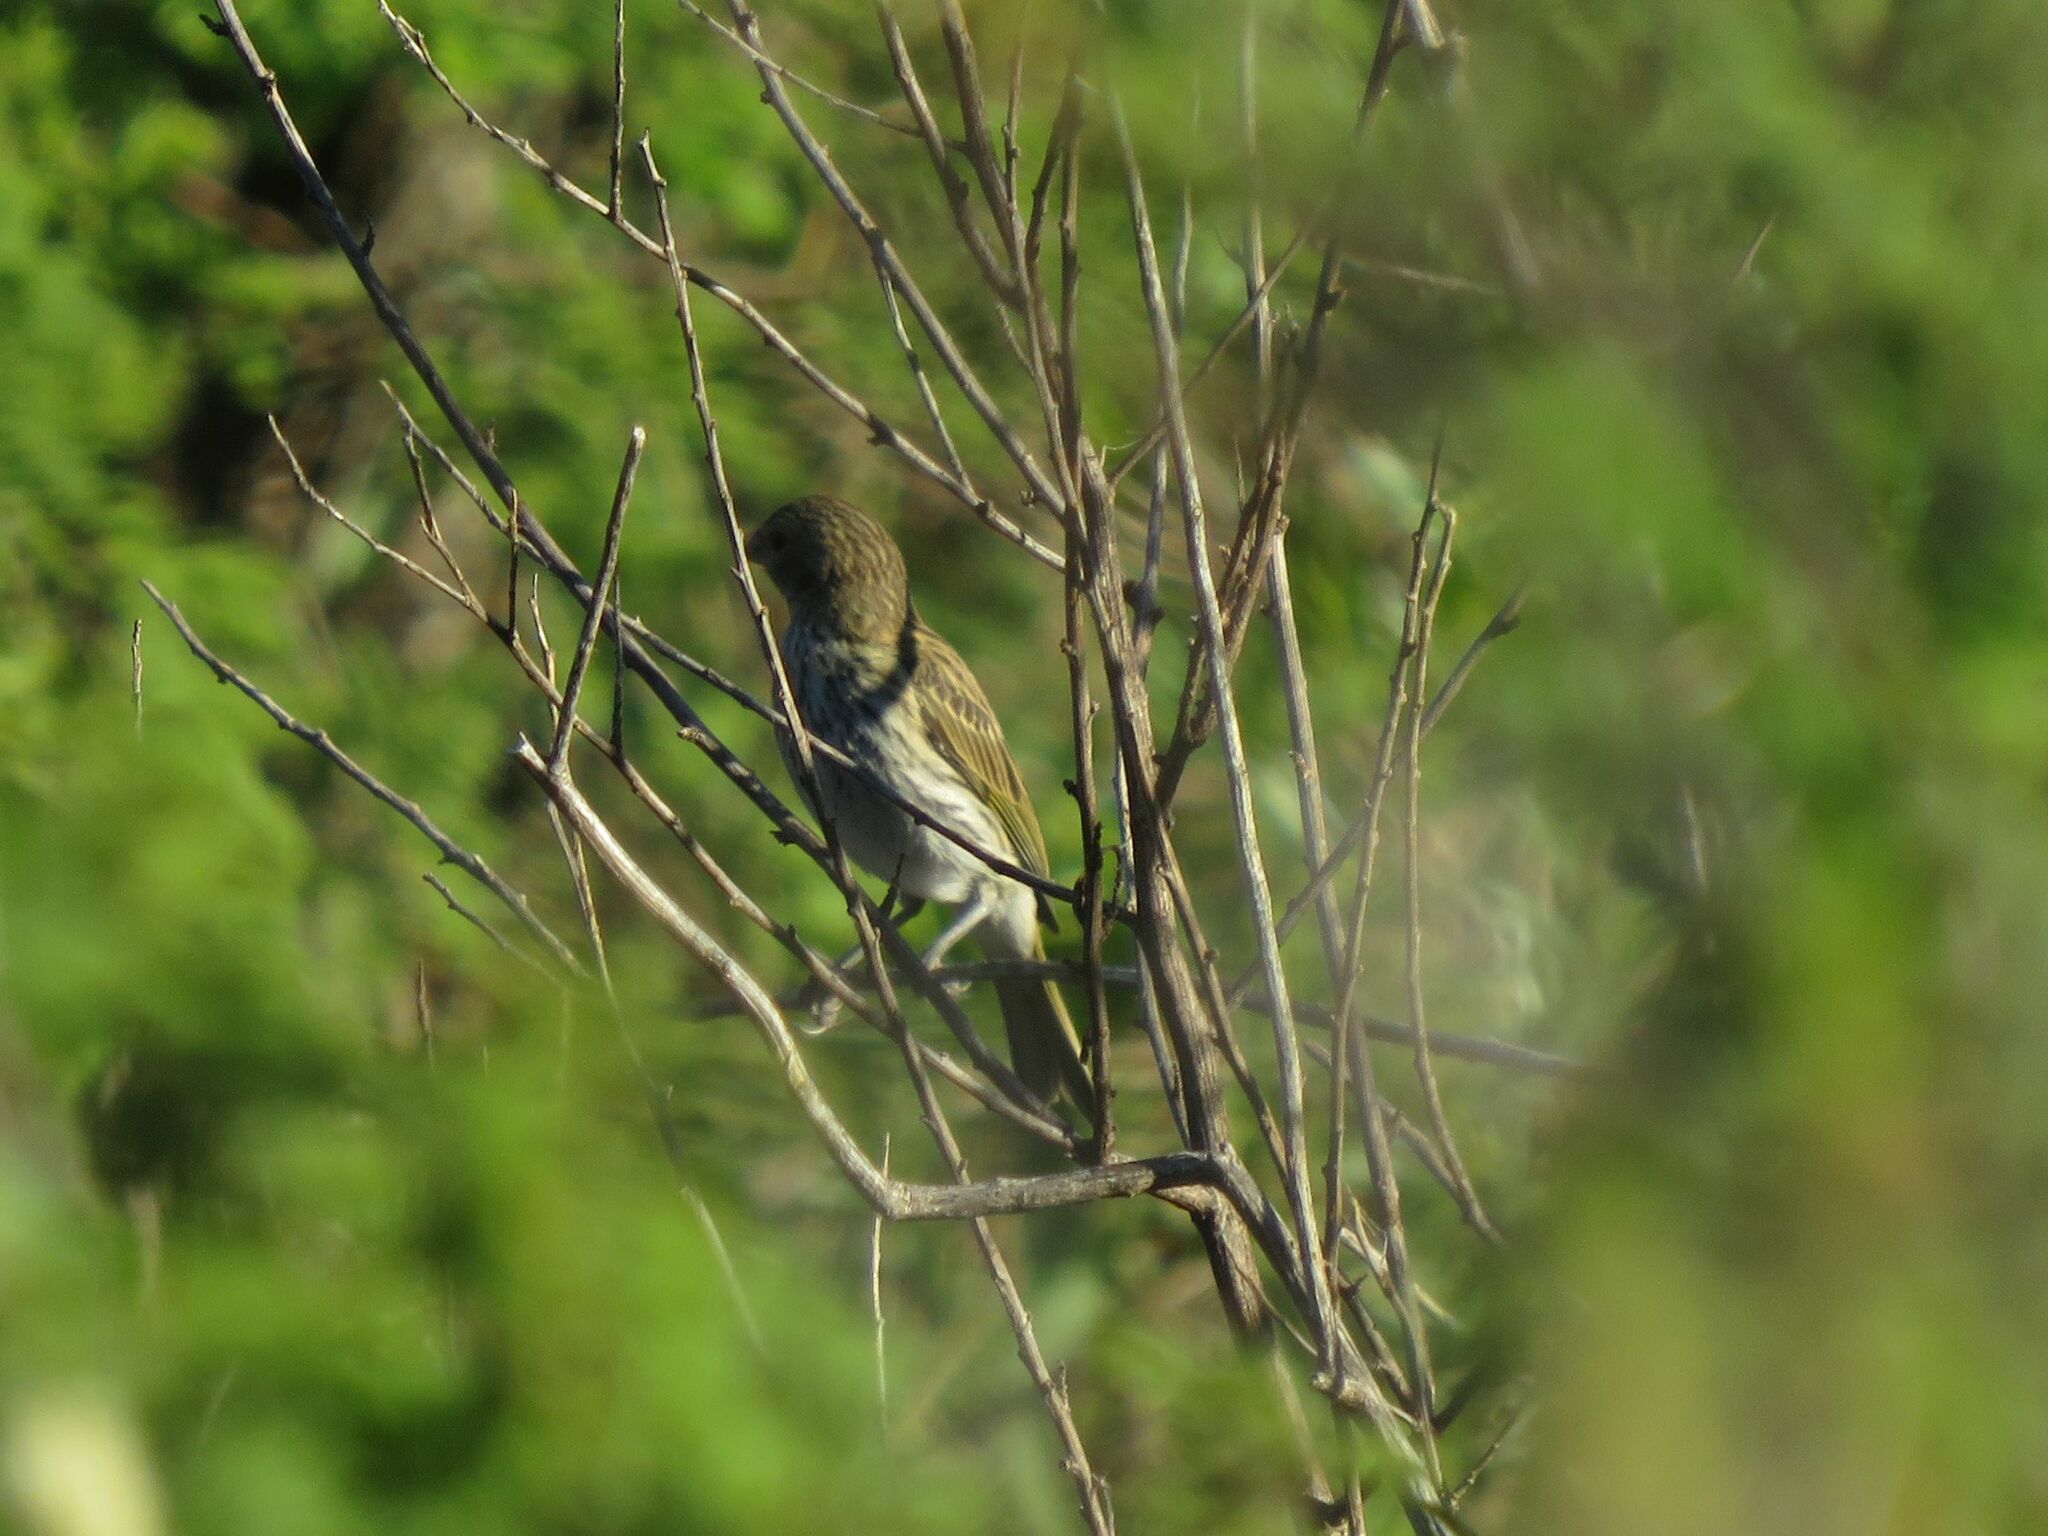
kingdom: Animalia
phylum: Chordata
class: Aves
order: Passeriformes
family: Thraupidae
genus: Sicalis
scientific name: Sicalis flaveola
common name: Saffron finch
